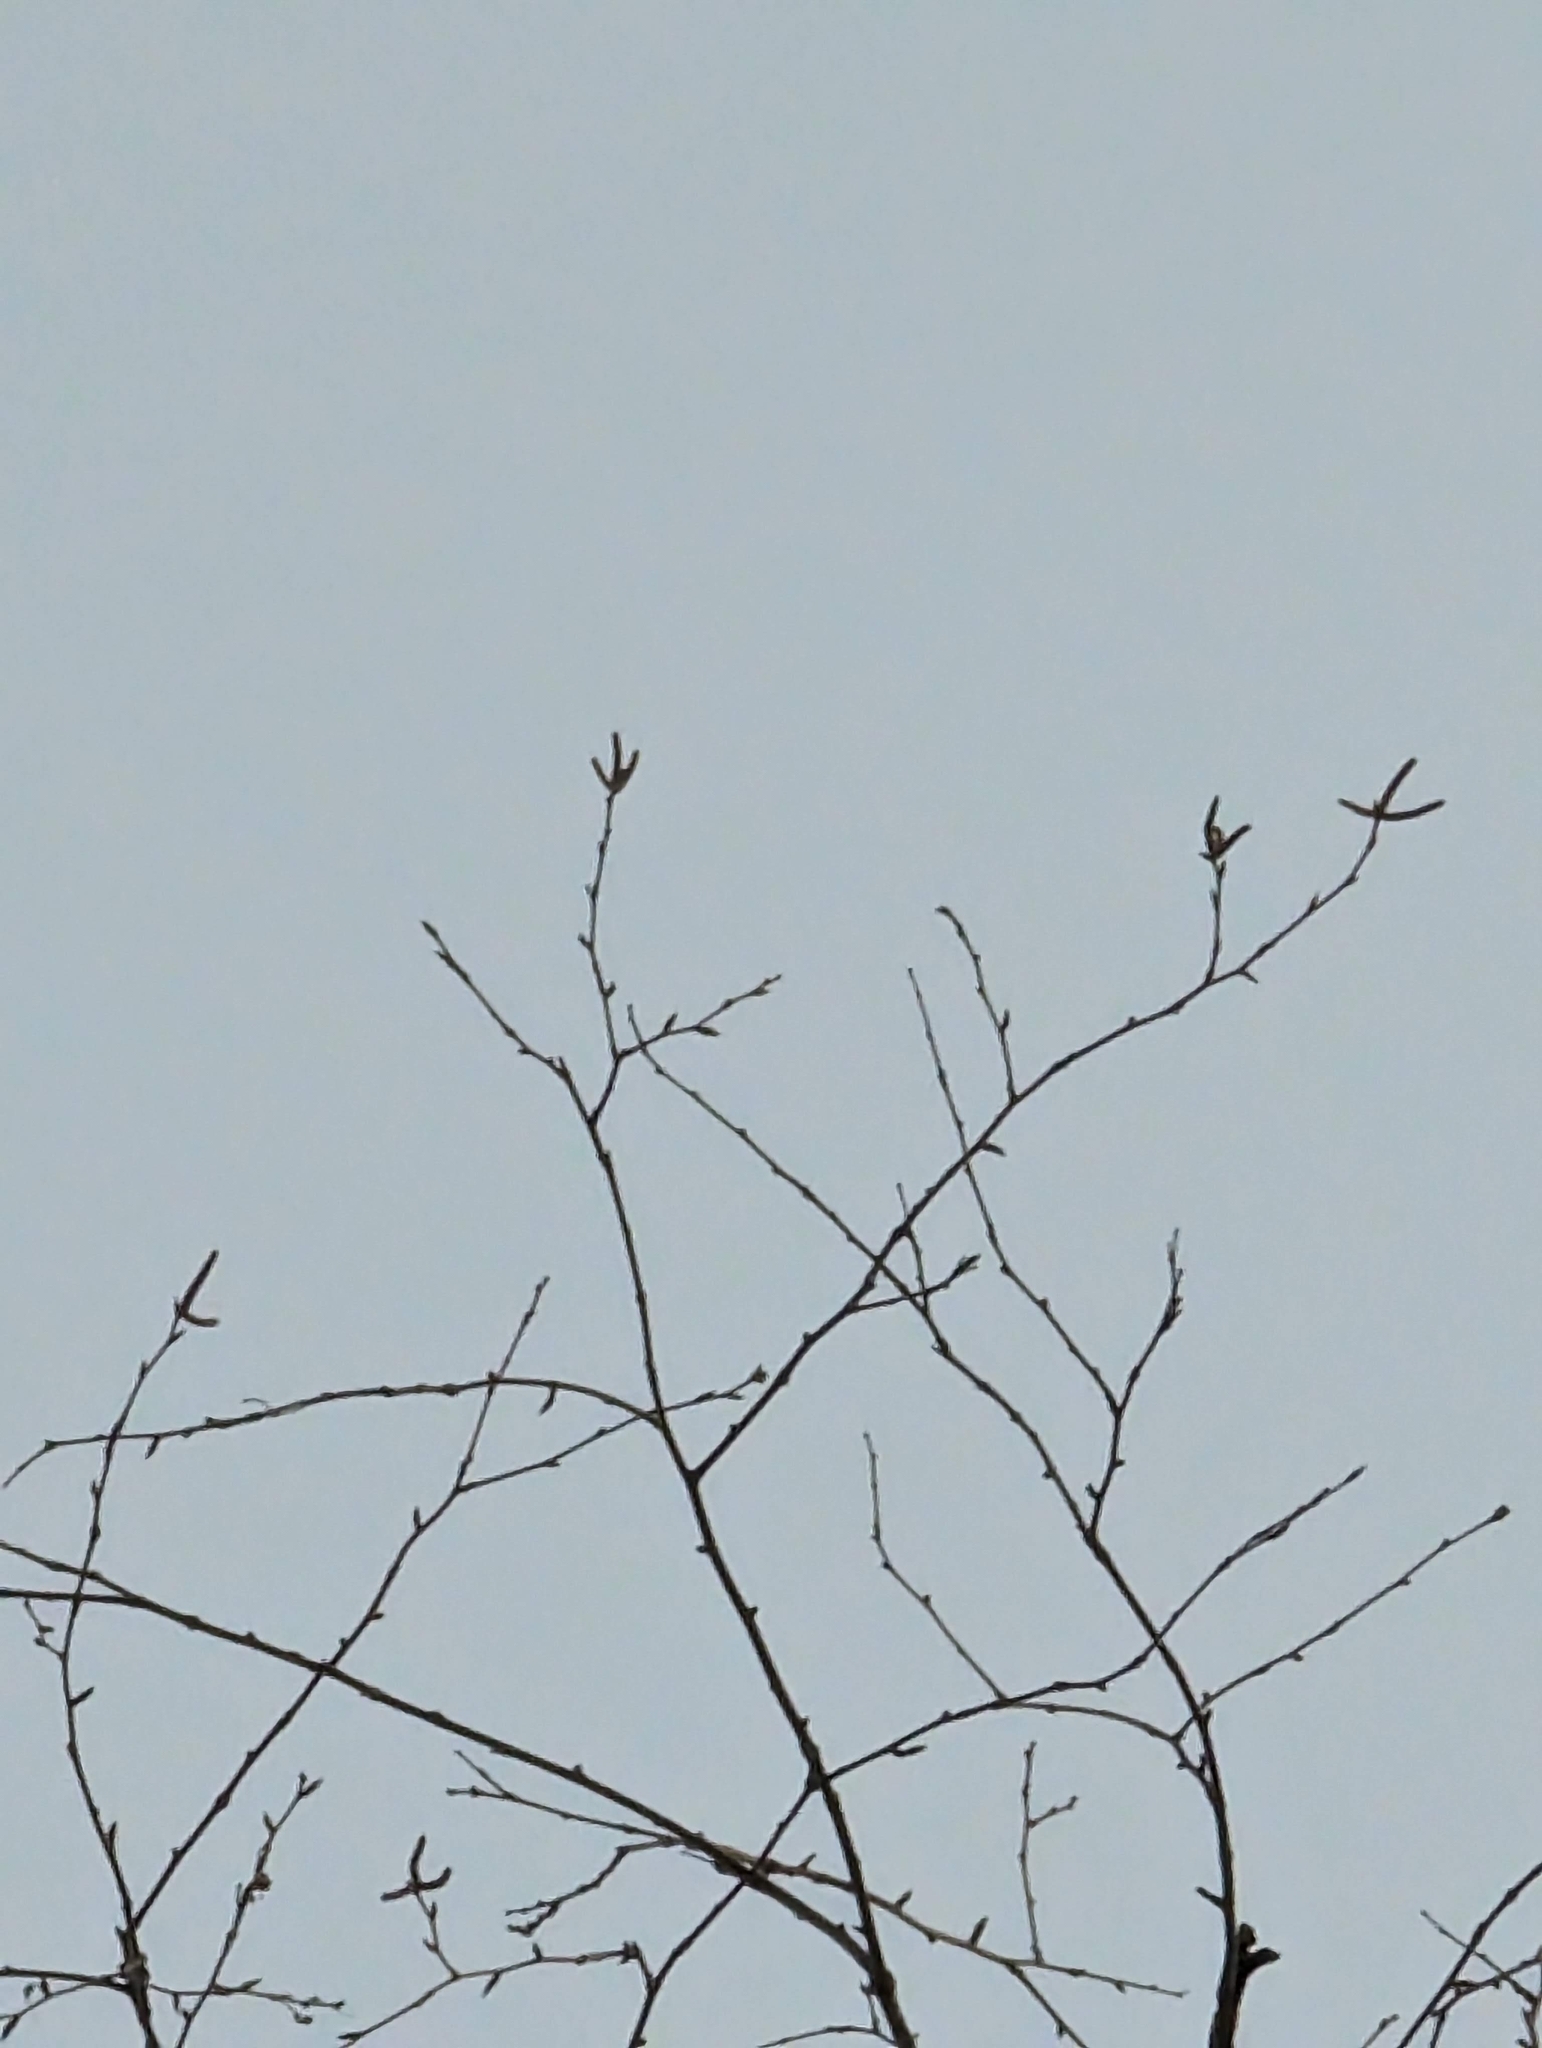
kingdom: Plantae
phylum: Tracheophyta
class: Magnoliopsida
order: Fagales
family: Betulaceae
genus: Betula
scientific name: Betula papyrifera
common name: Paper birch
